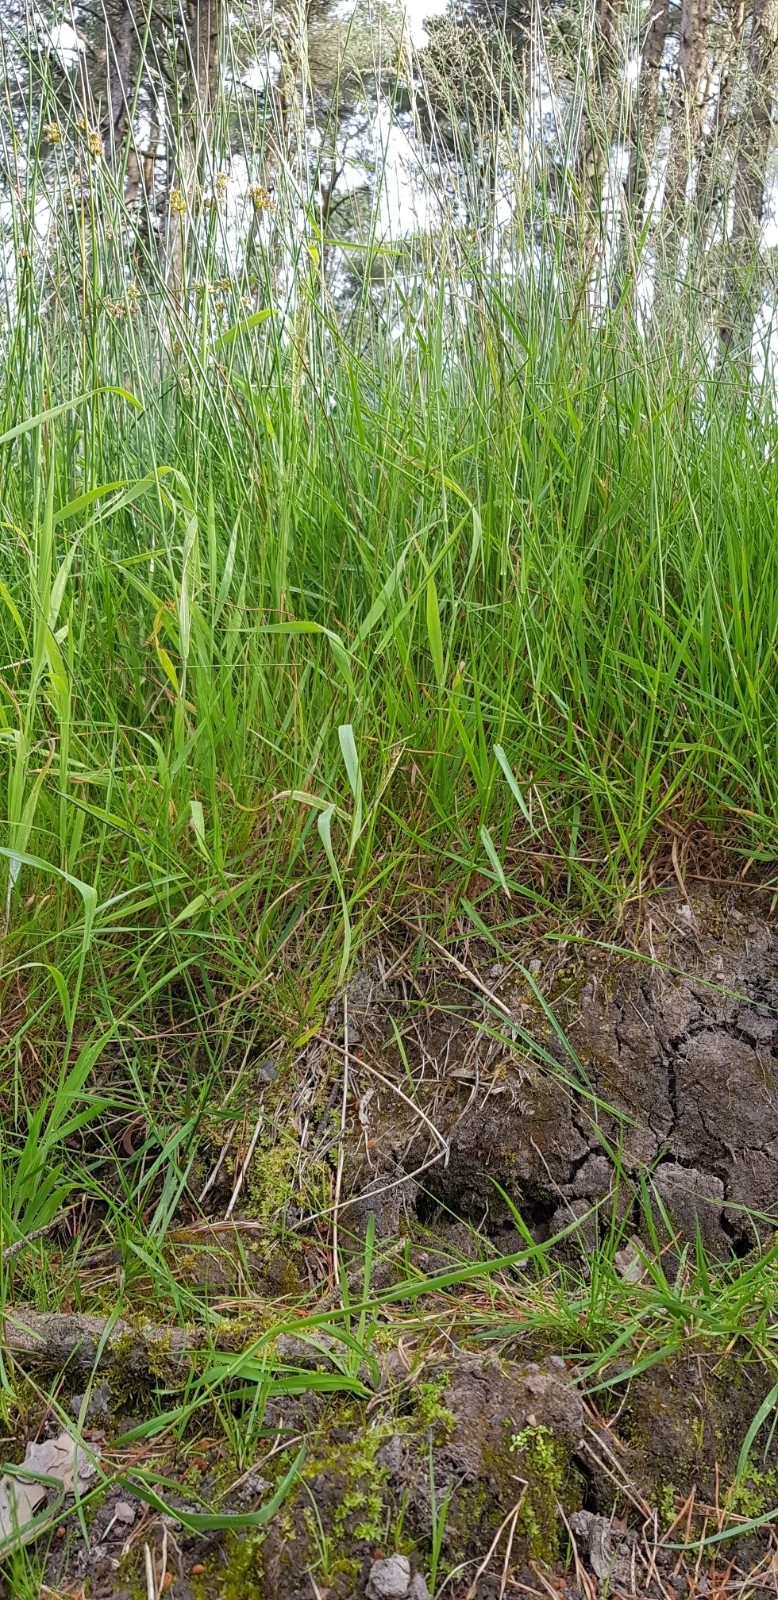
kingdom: Plantae
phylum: Bryophyta
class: Bryopsida
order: Dicranales
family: Dicranellaceae
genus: Dicranella
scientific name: Dicranella rufescens
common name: Red forklet moss
